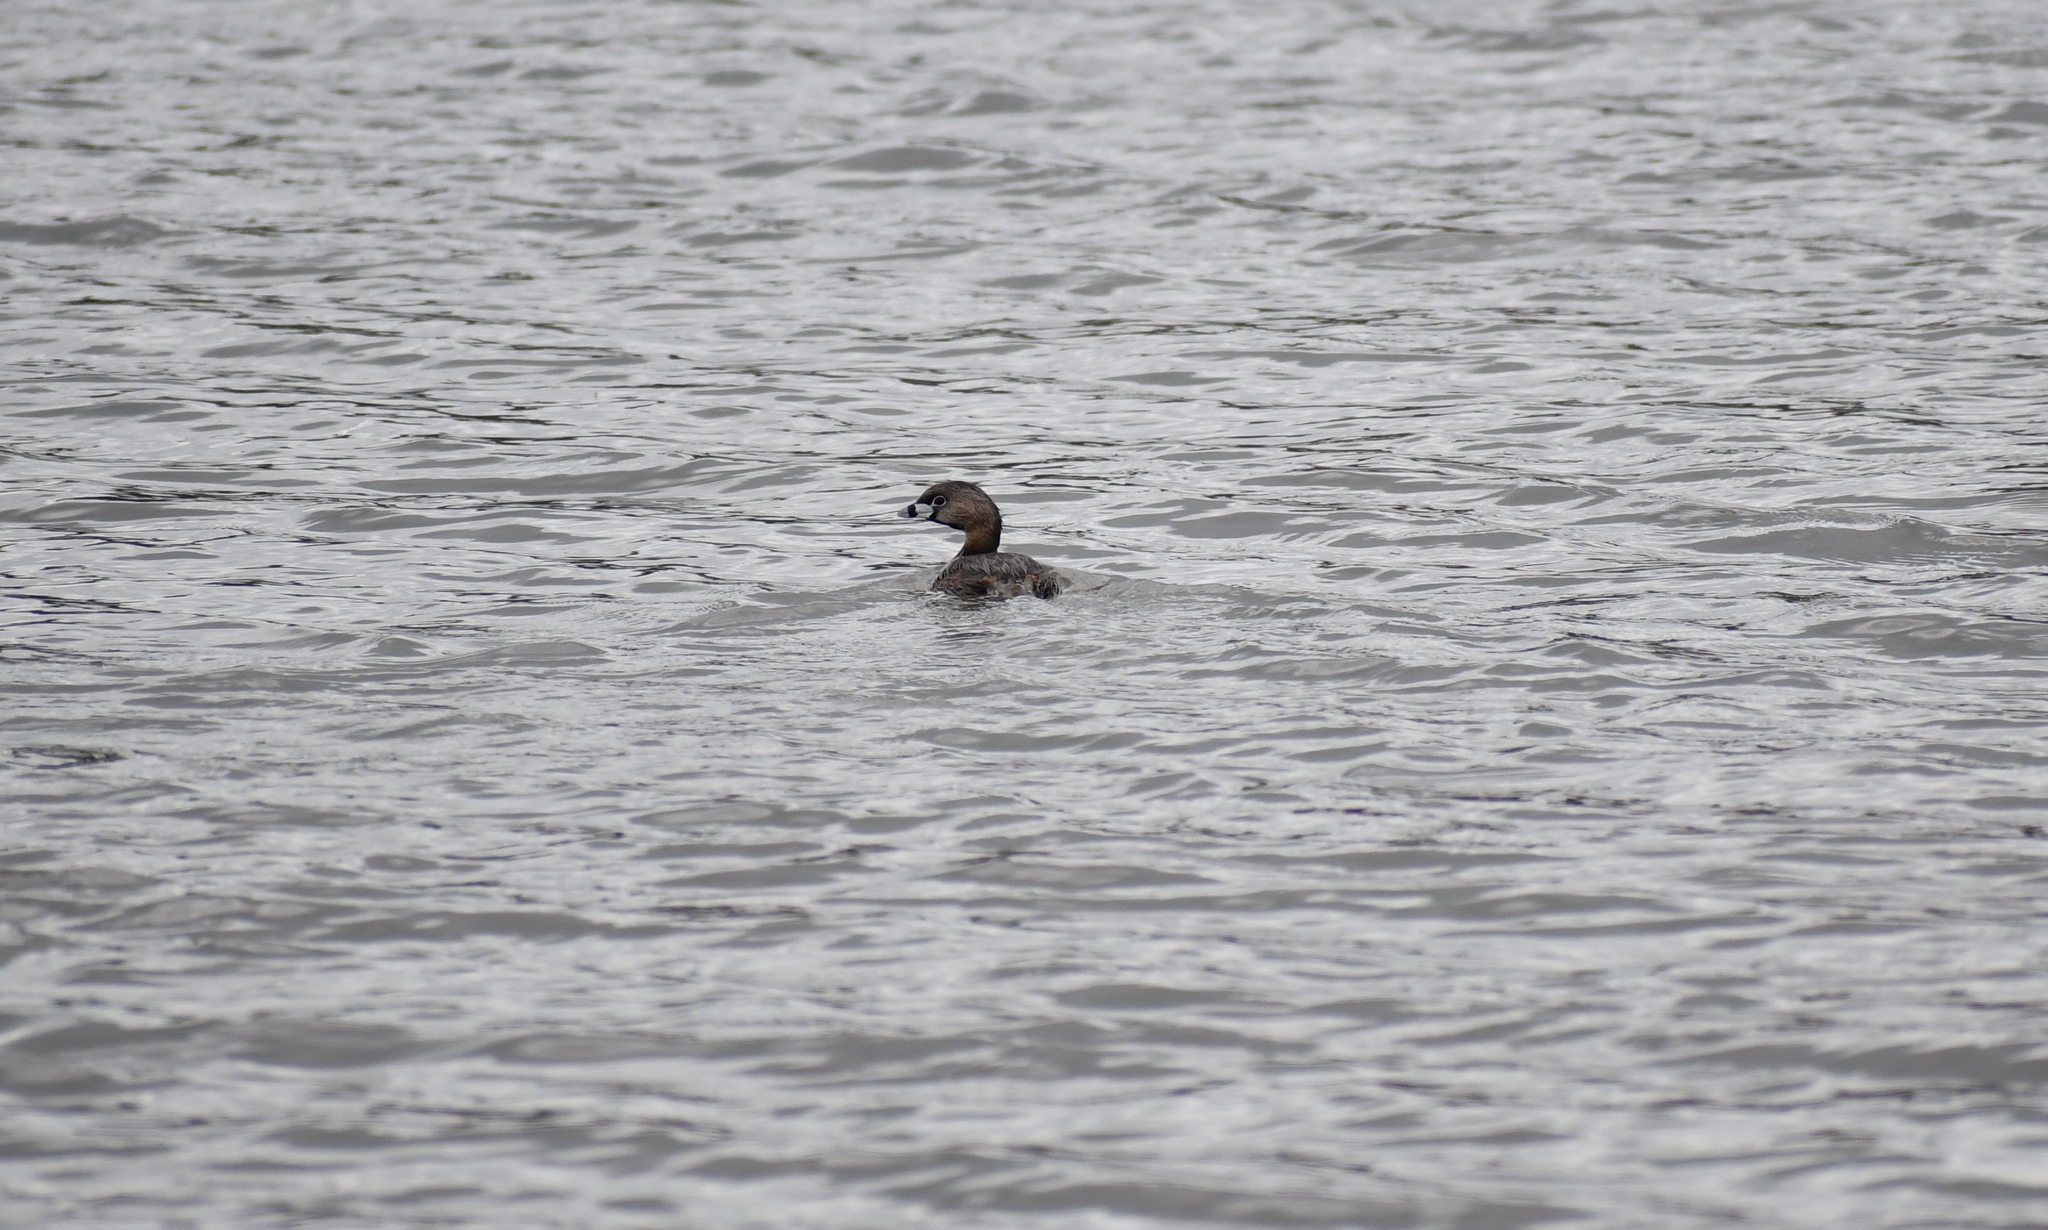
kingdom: Animalia
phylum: Chordata
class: Aves
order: Podicipediformes
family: Podicipedidae
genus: Podilymbus
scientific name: Podilymbus podiceps
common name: Pied-billed grebe
